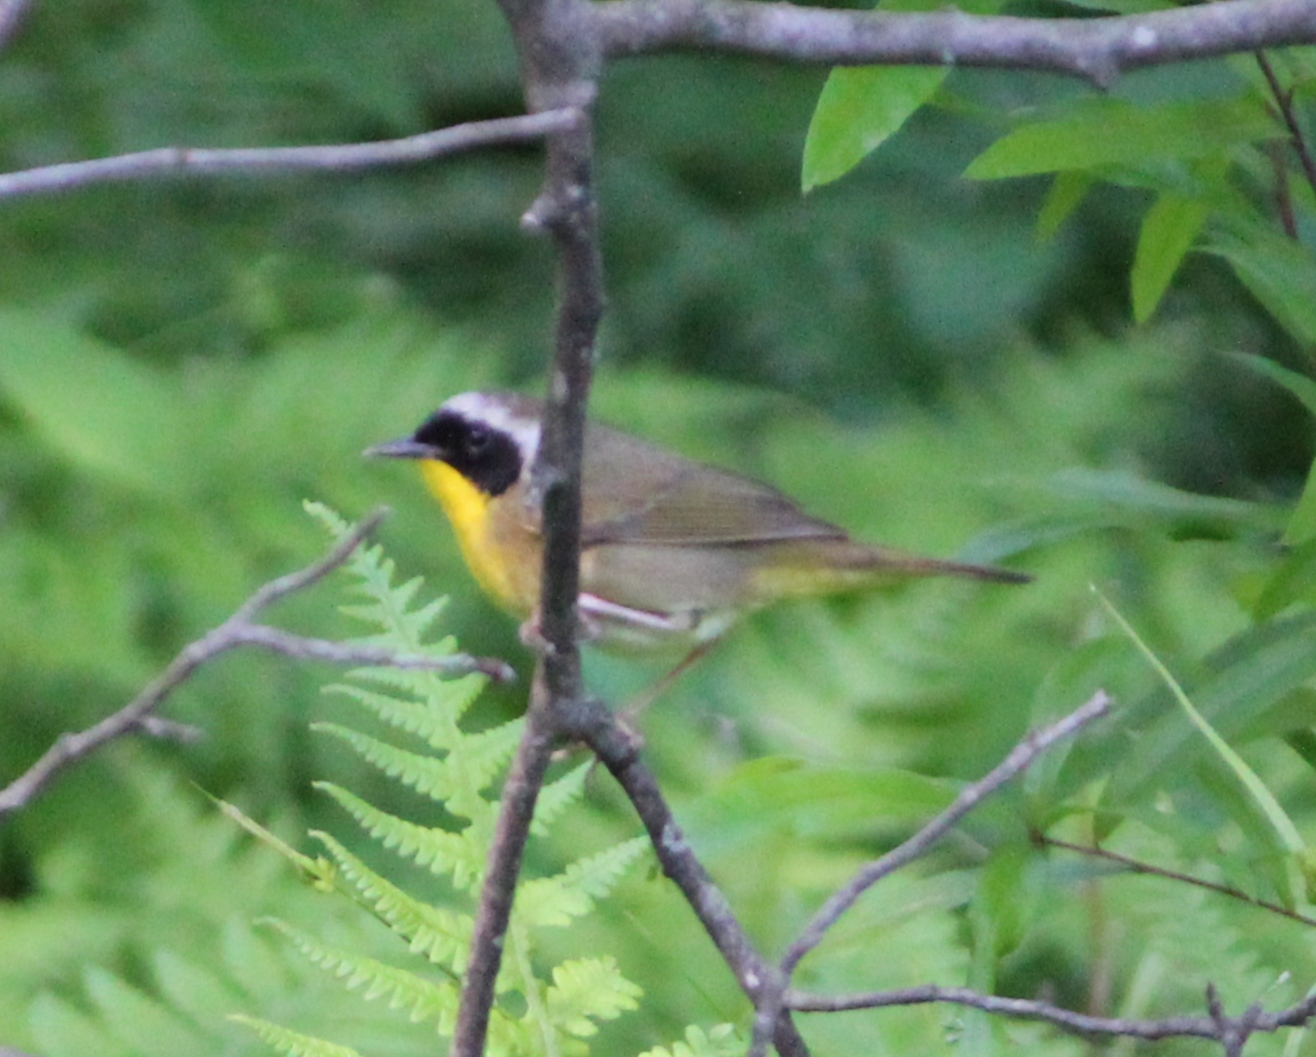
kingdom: Animalia
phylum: Chordata
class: Aves
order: Passeriformes
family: Parulidae
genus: Geothlypis
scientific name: Geothlypis trichas
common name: Common yellowthroat
